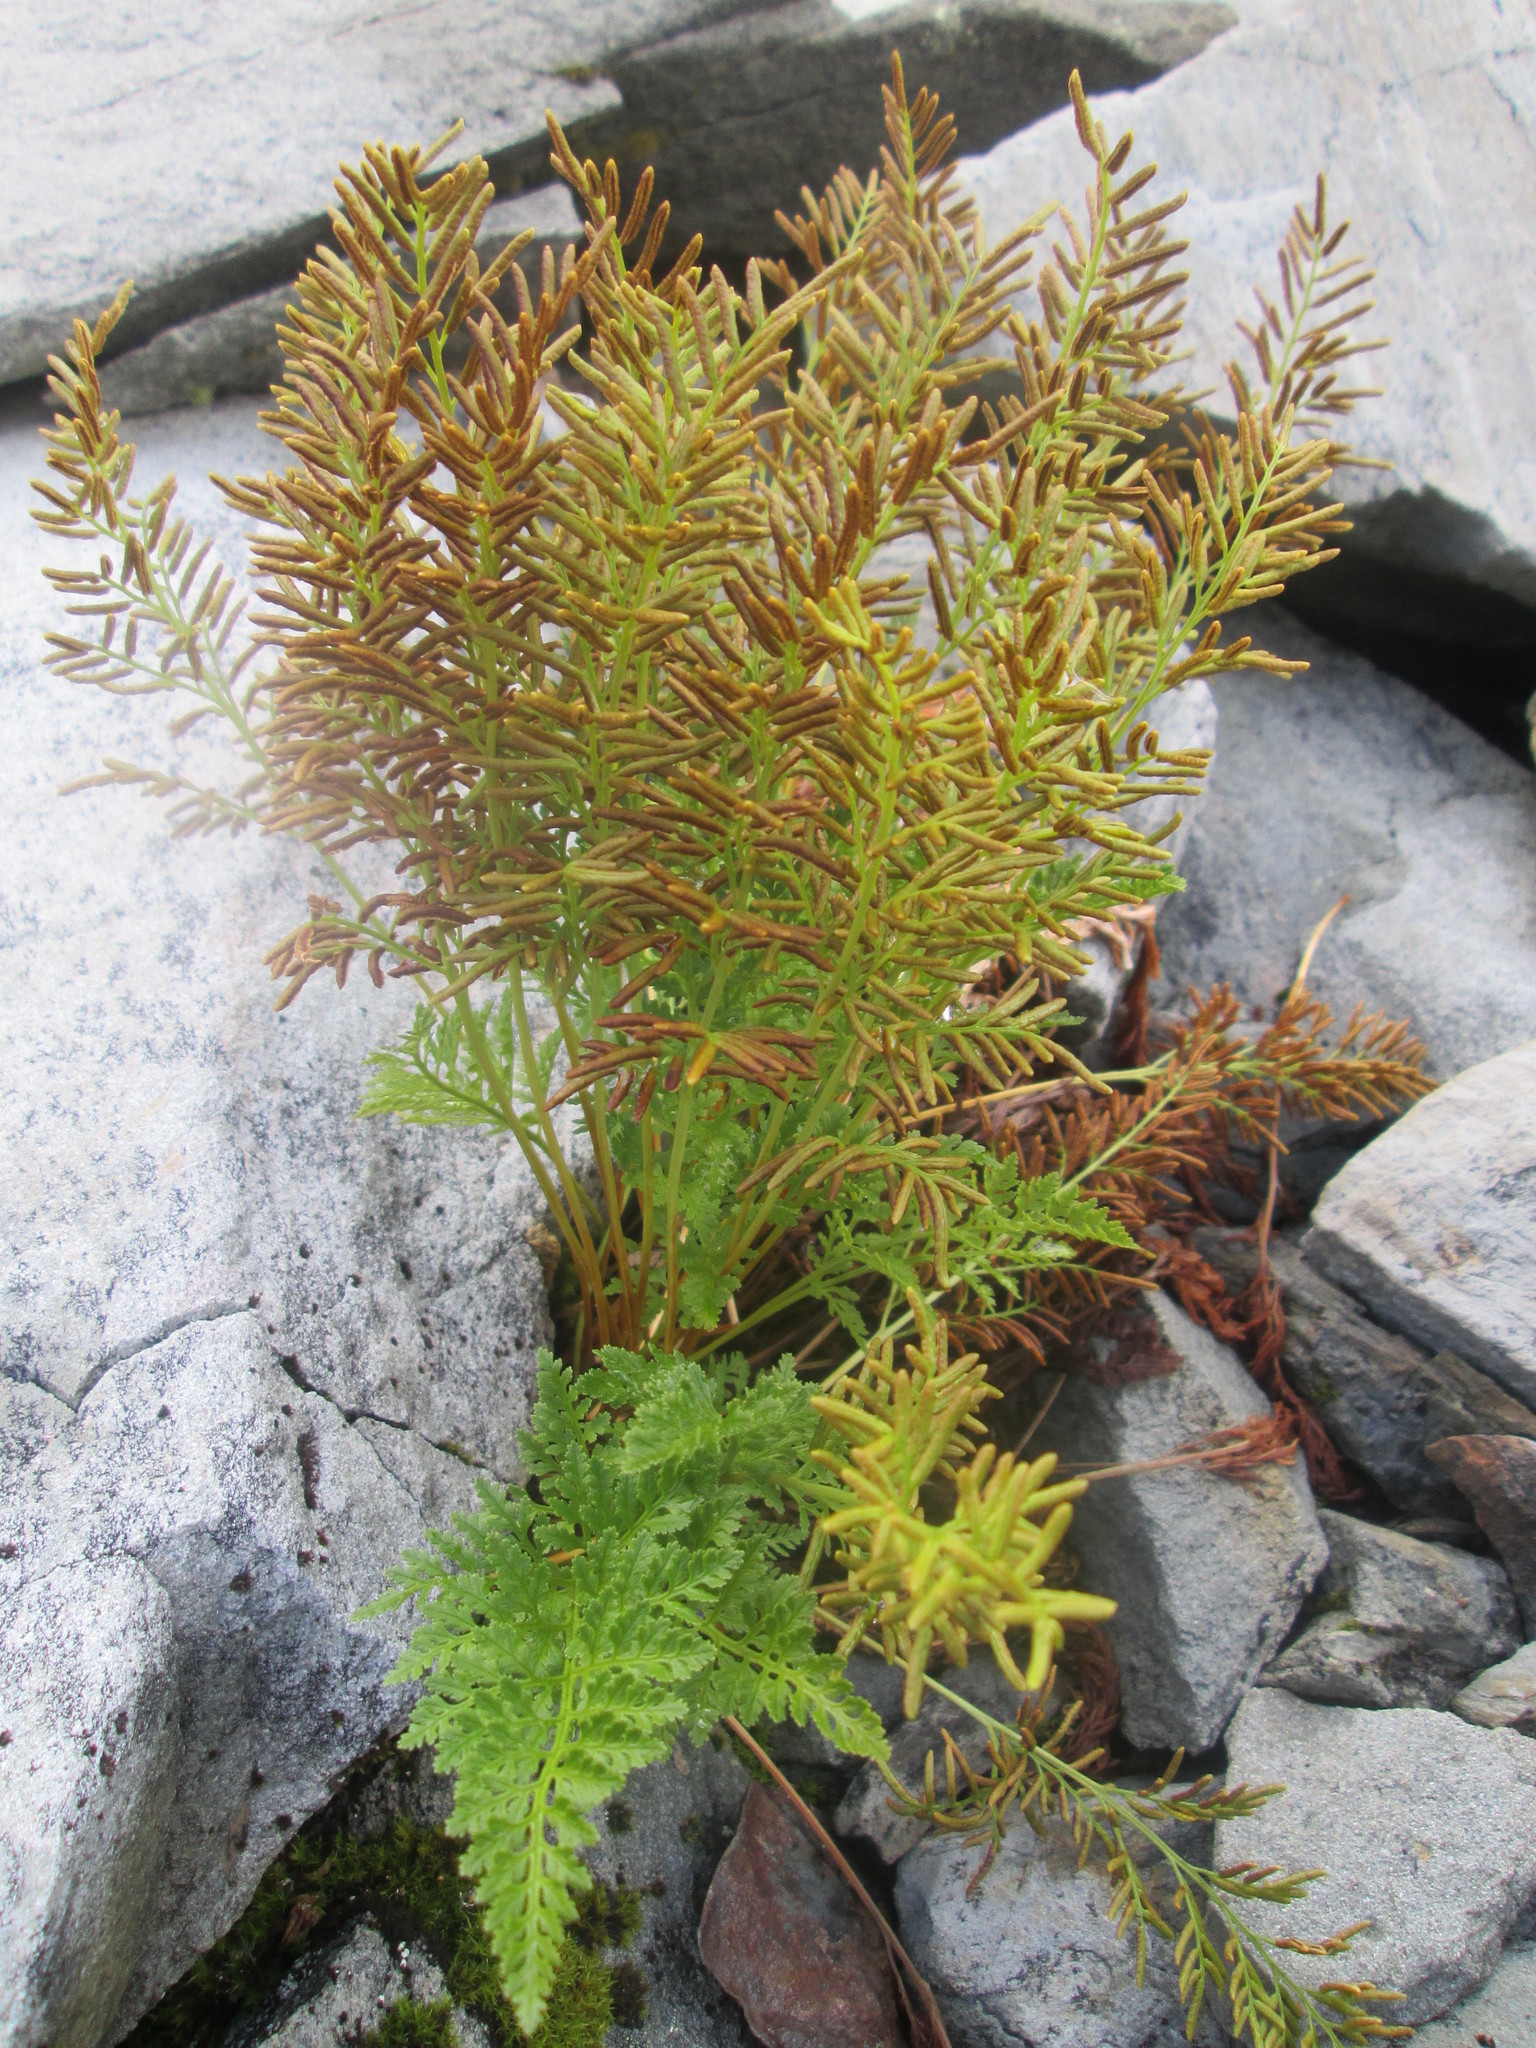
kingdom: Plantae
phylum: Tracheophyta
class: Polypodiopsida
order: Polypodiales
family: Pteridaceae
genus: Cryptogramma
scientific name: Cryptogramma acrostichoides
